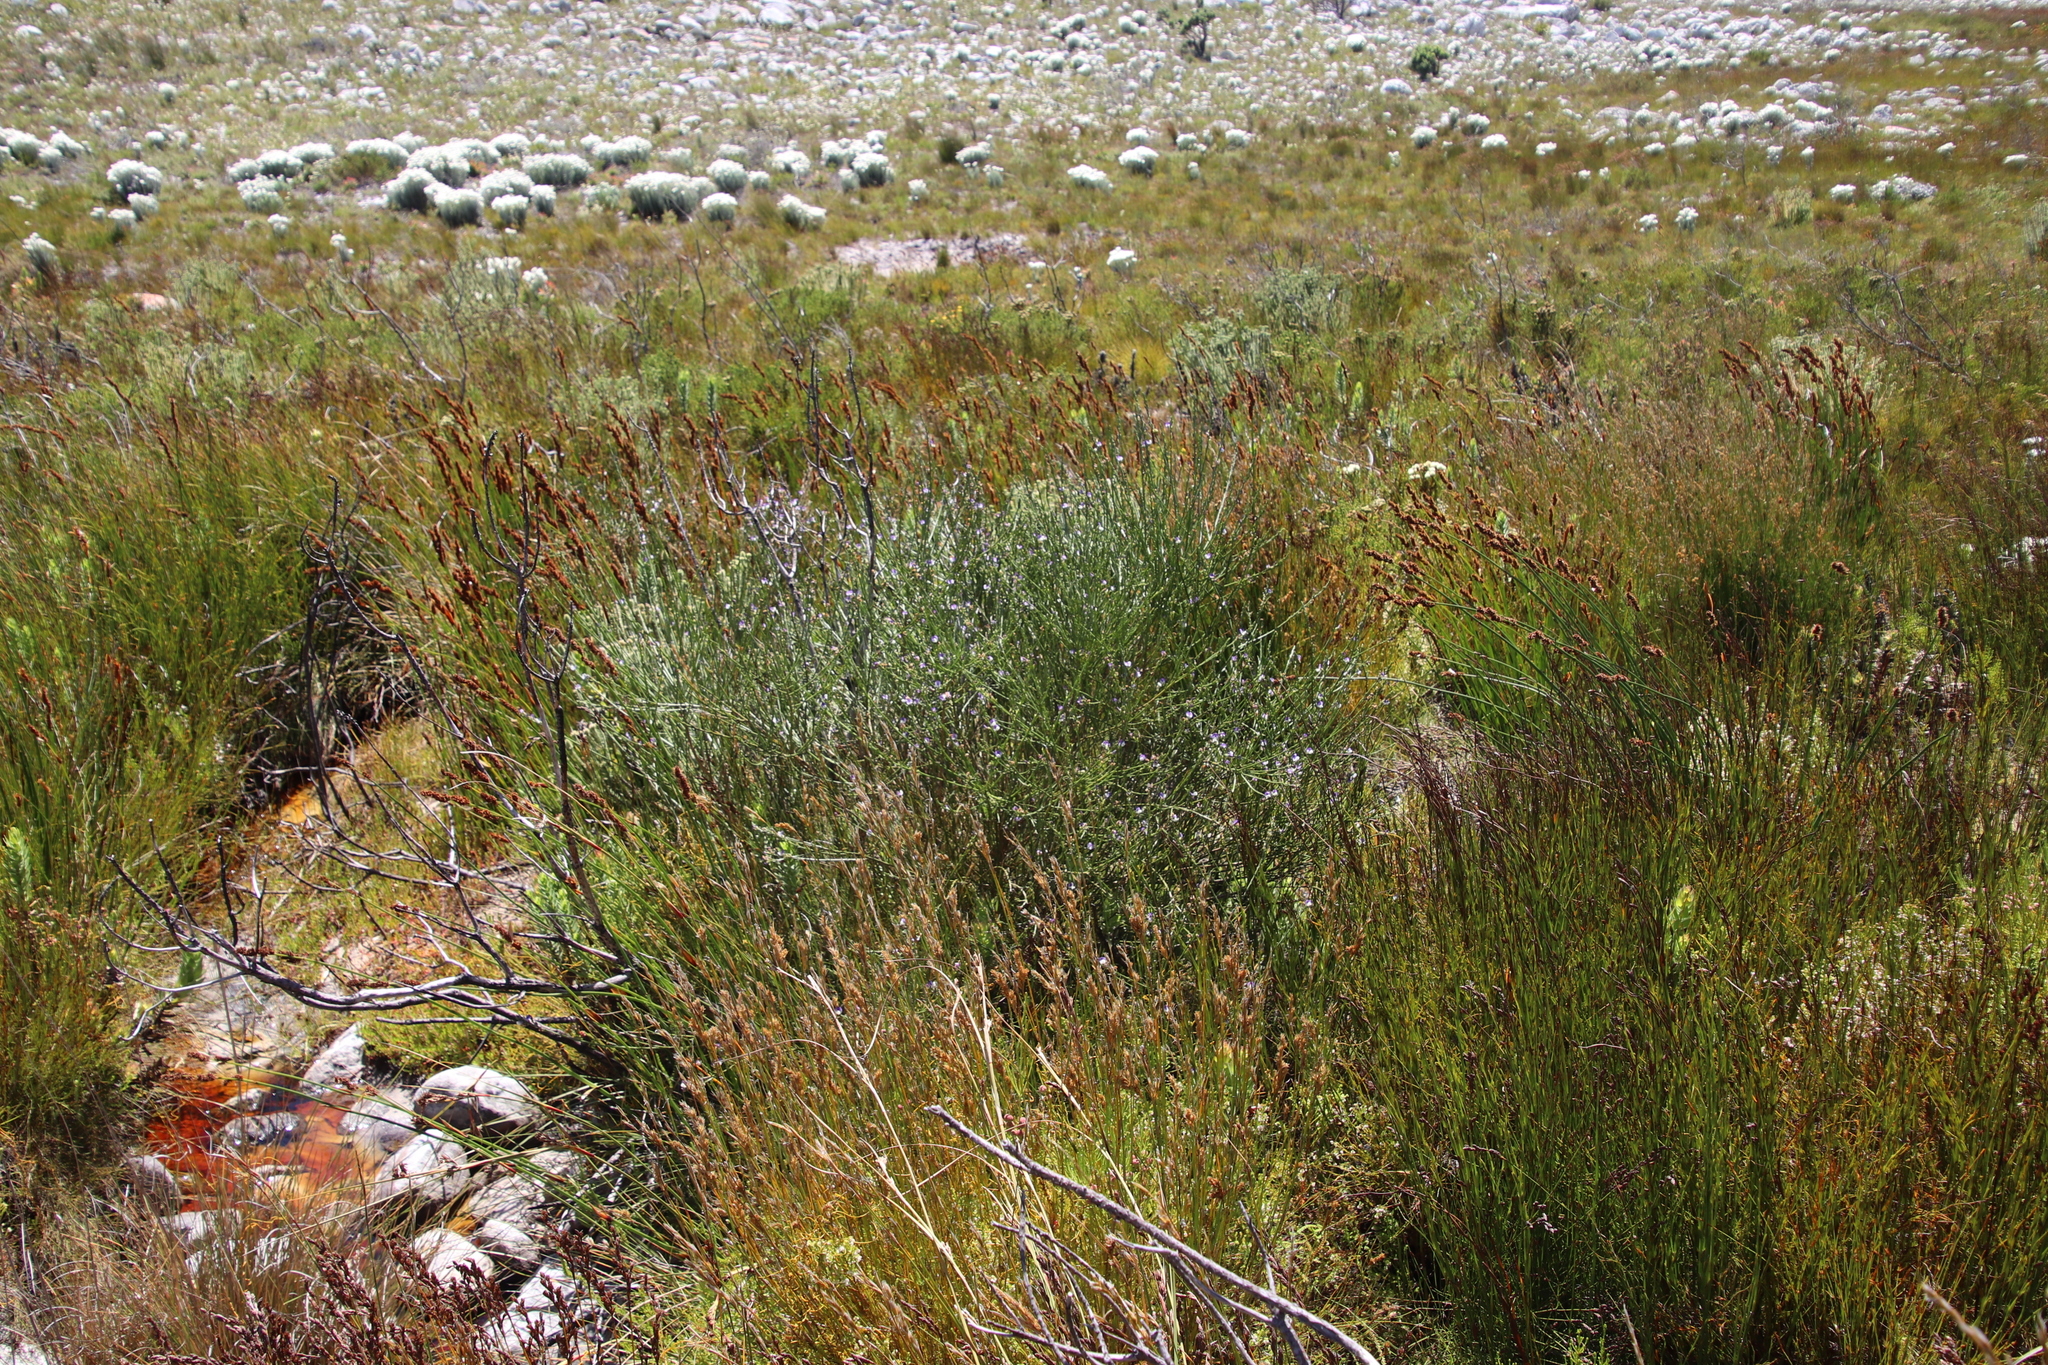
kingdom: Plantae
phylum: Tracheophyta
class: Magnoliopsida
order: Fabales
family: Fabaceae
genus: Psoralea
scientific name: Psoralea aphylla
